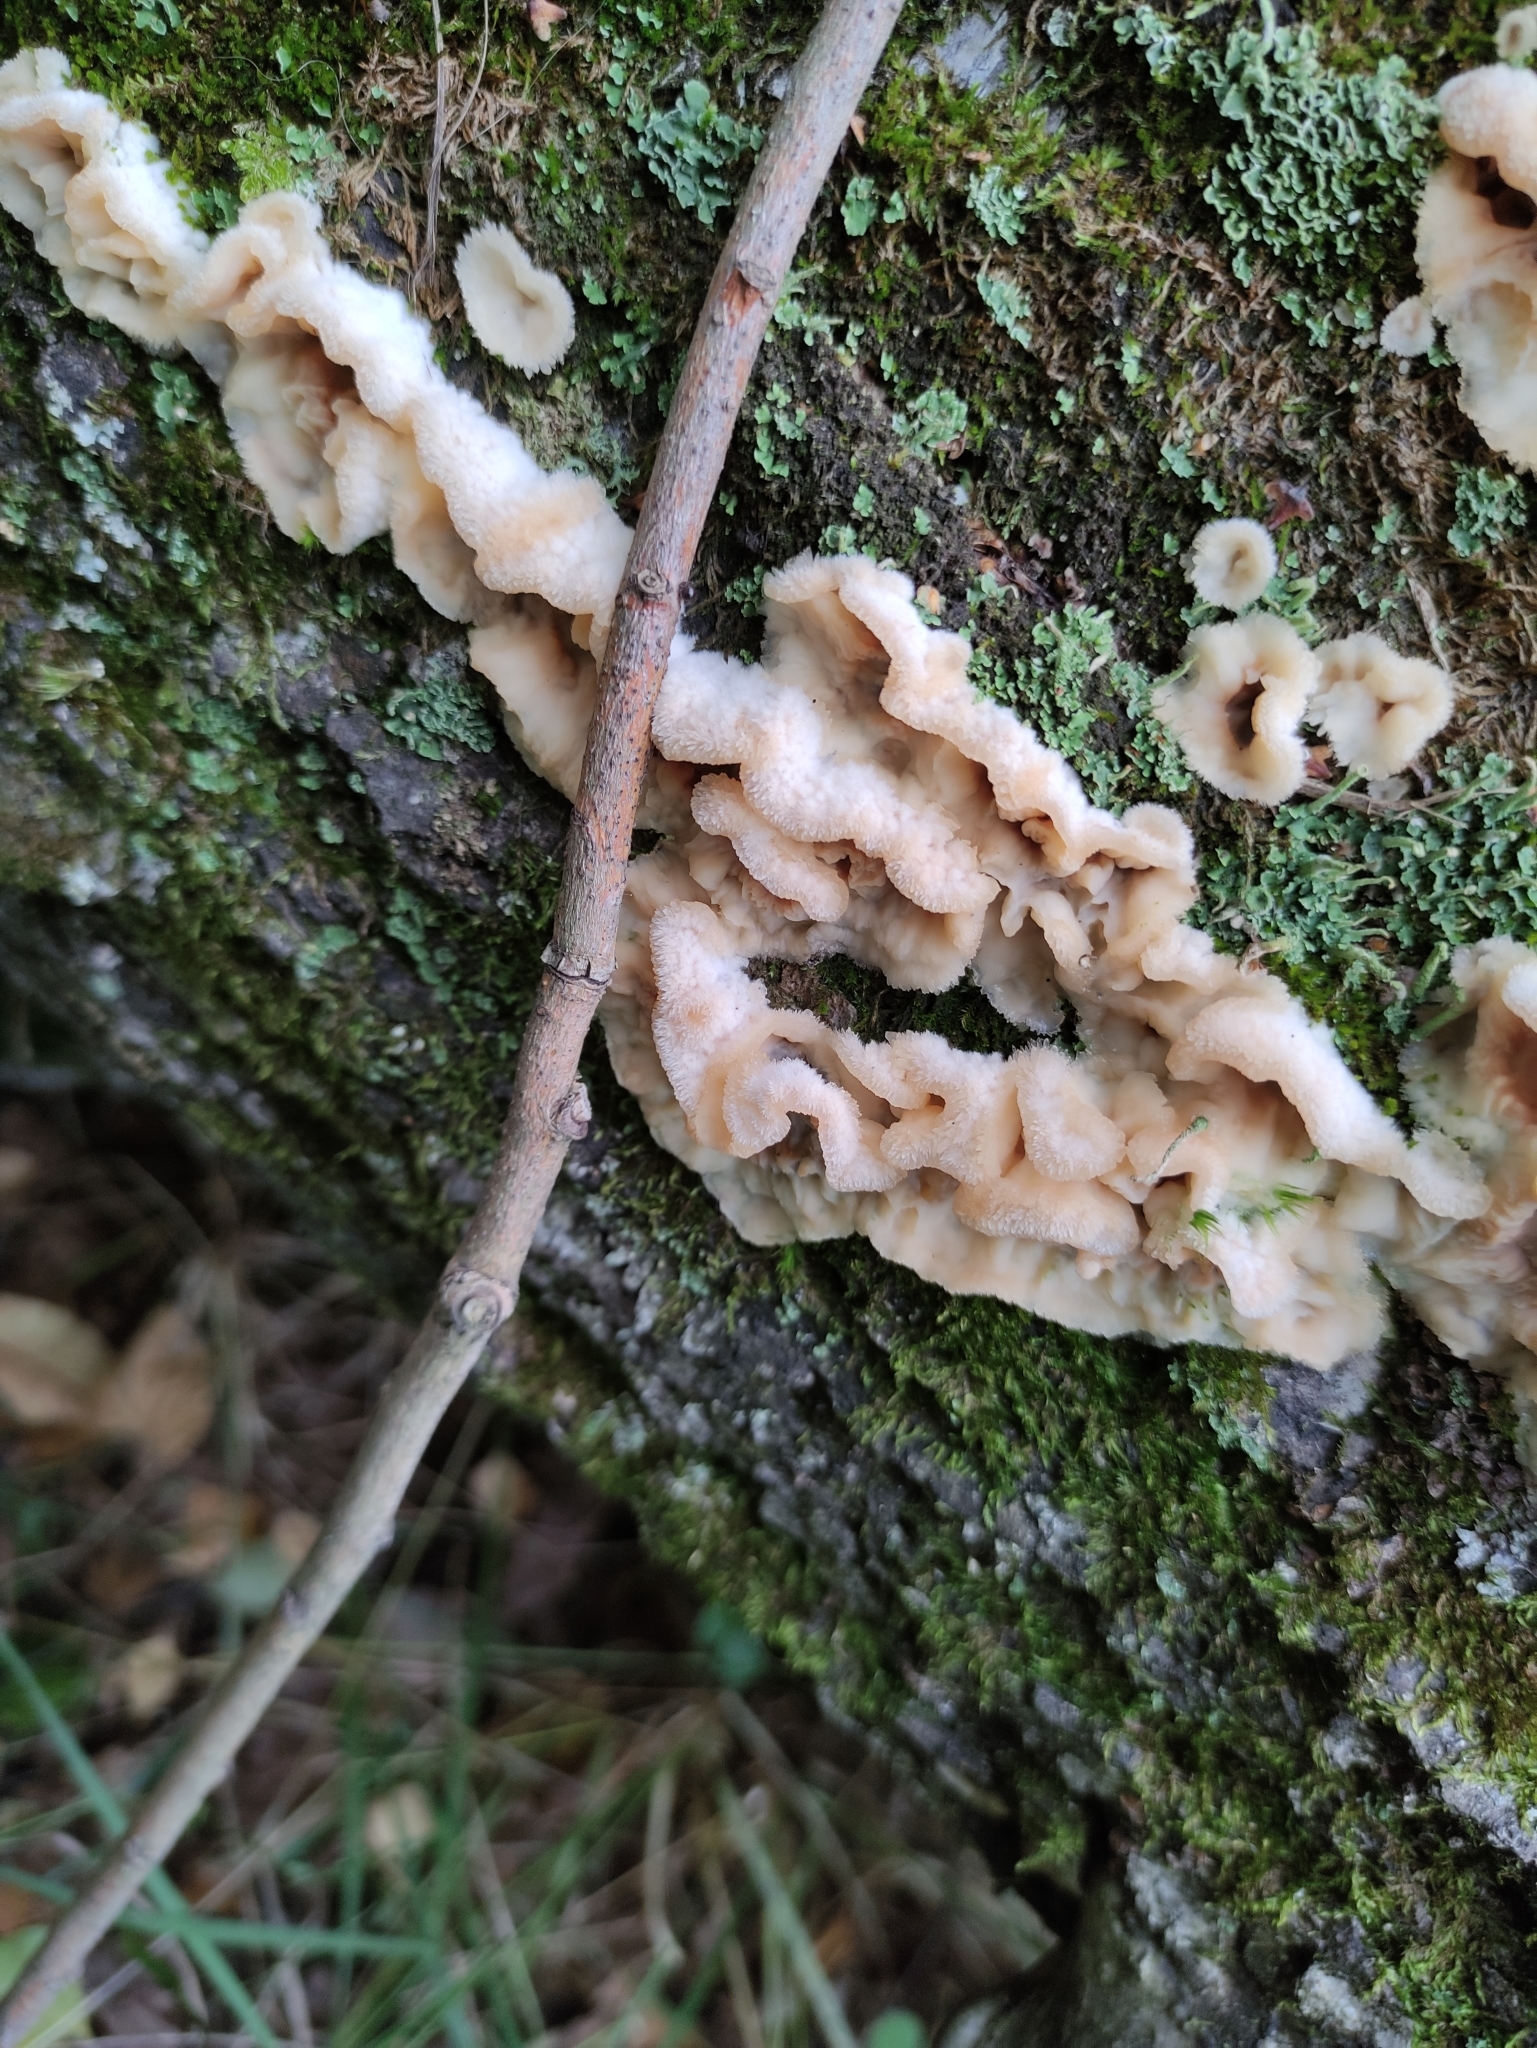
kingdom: Fungi
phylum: Basidiomycota
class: Agaricomycetes
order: Polyporales
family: Meruliaceae
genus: Phlebia
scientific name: Phlebia tremellosa
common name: Jelly rot
